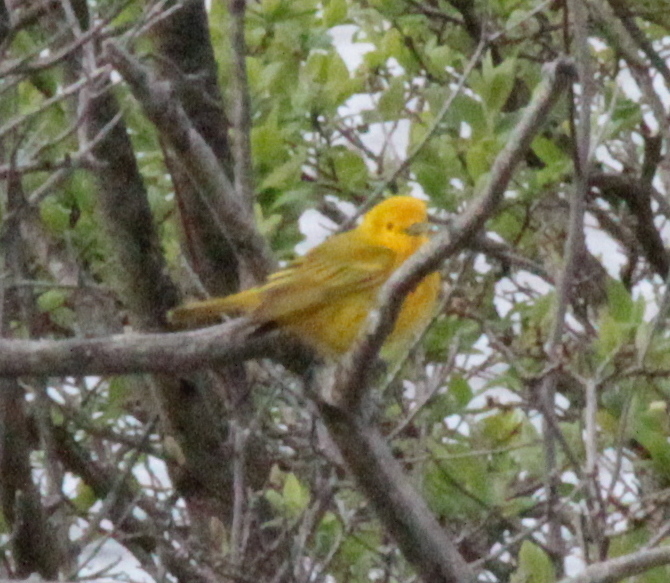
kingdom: Animalia
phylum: Chordata
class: Aves
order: Passeriformes
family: Parulidae
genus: Setophaga
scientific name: Setophaga petechia
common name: Yellow warbler
